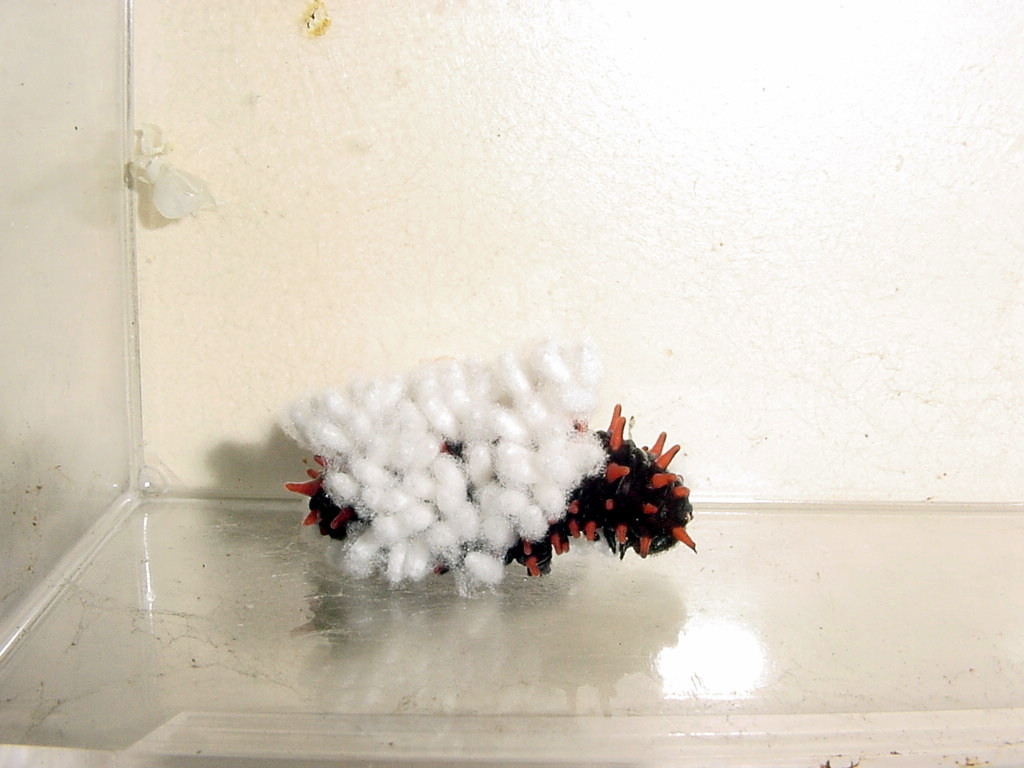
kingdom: Animalia
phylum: Arthropoda
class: Insecta
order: Lepidoptera
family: Papilionidae
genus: Pachliopta
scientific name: Pachliopta hector
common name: Crimson rose
